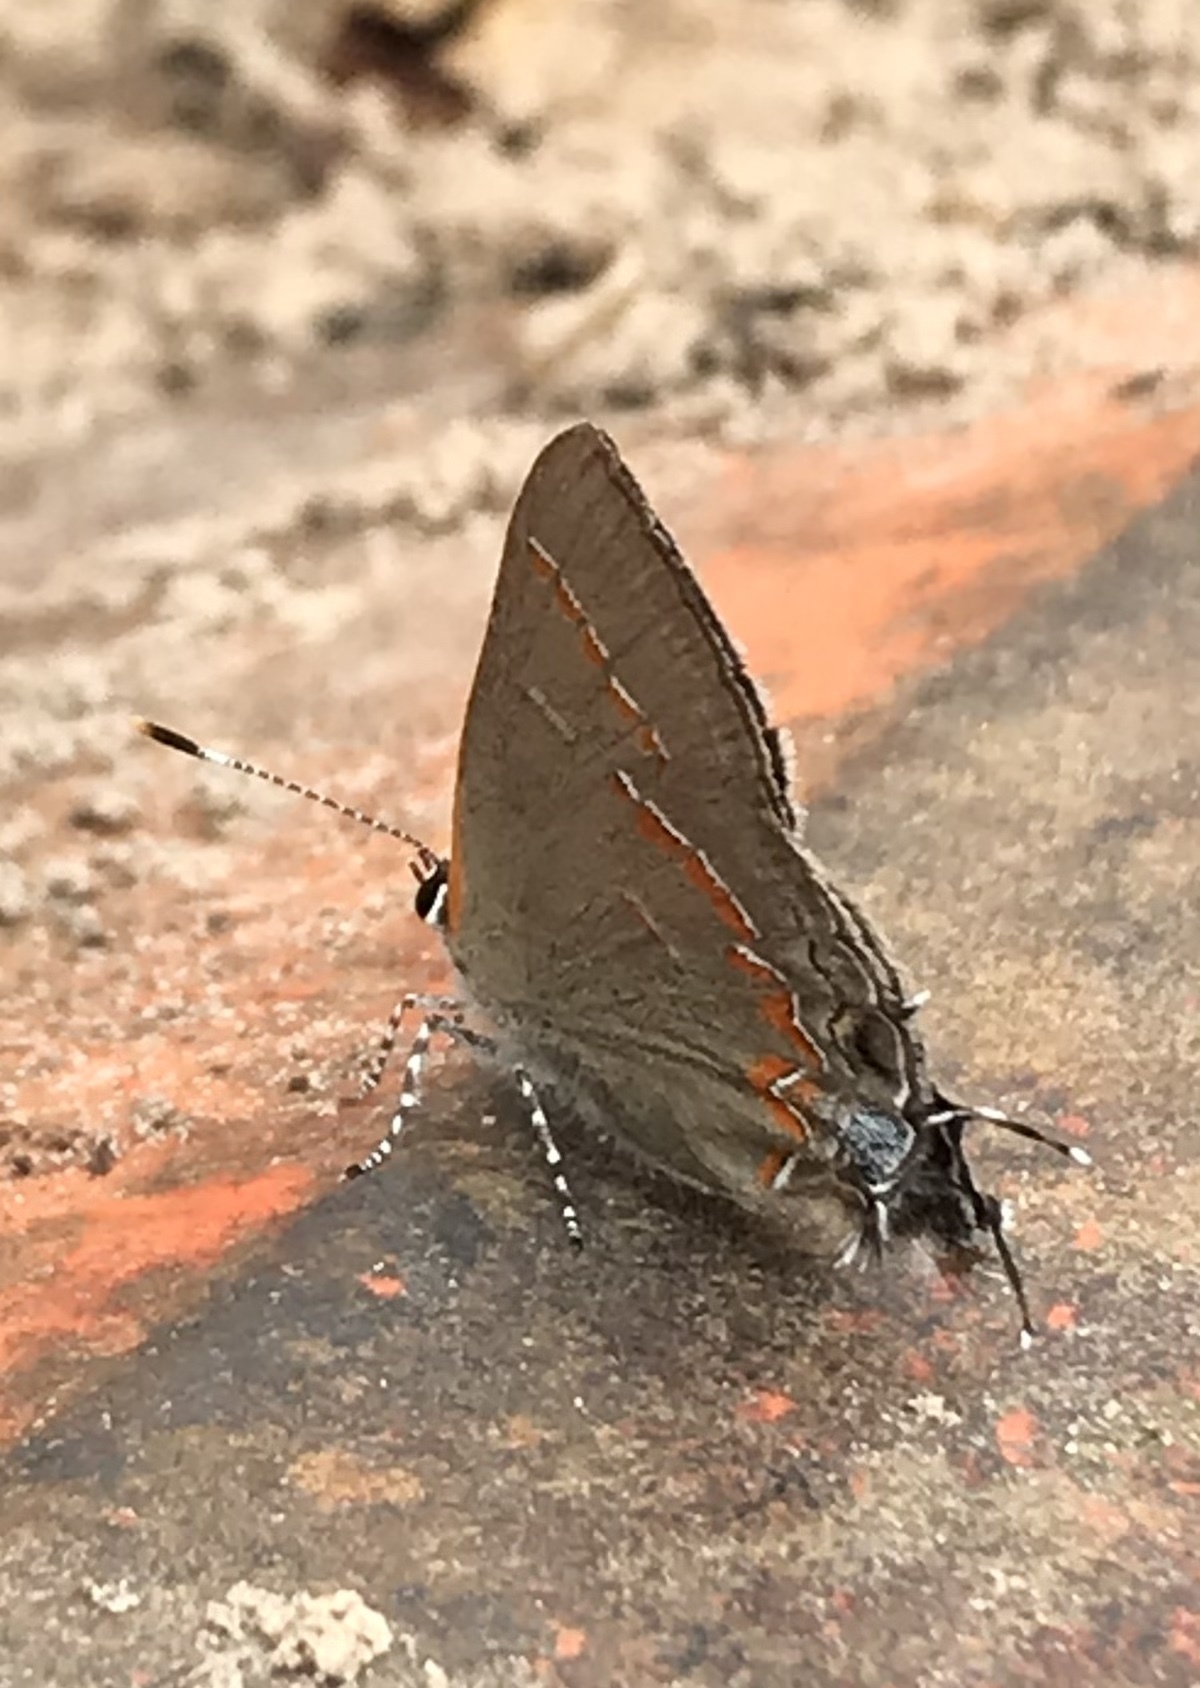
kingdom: Animalia
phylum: Arthropoda
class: Insecta
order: Lepidoptera
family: Lycaenidae
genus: Calycopis
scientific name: Calycopis cecrops
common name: Red-banded hairstreak
